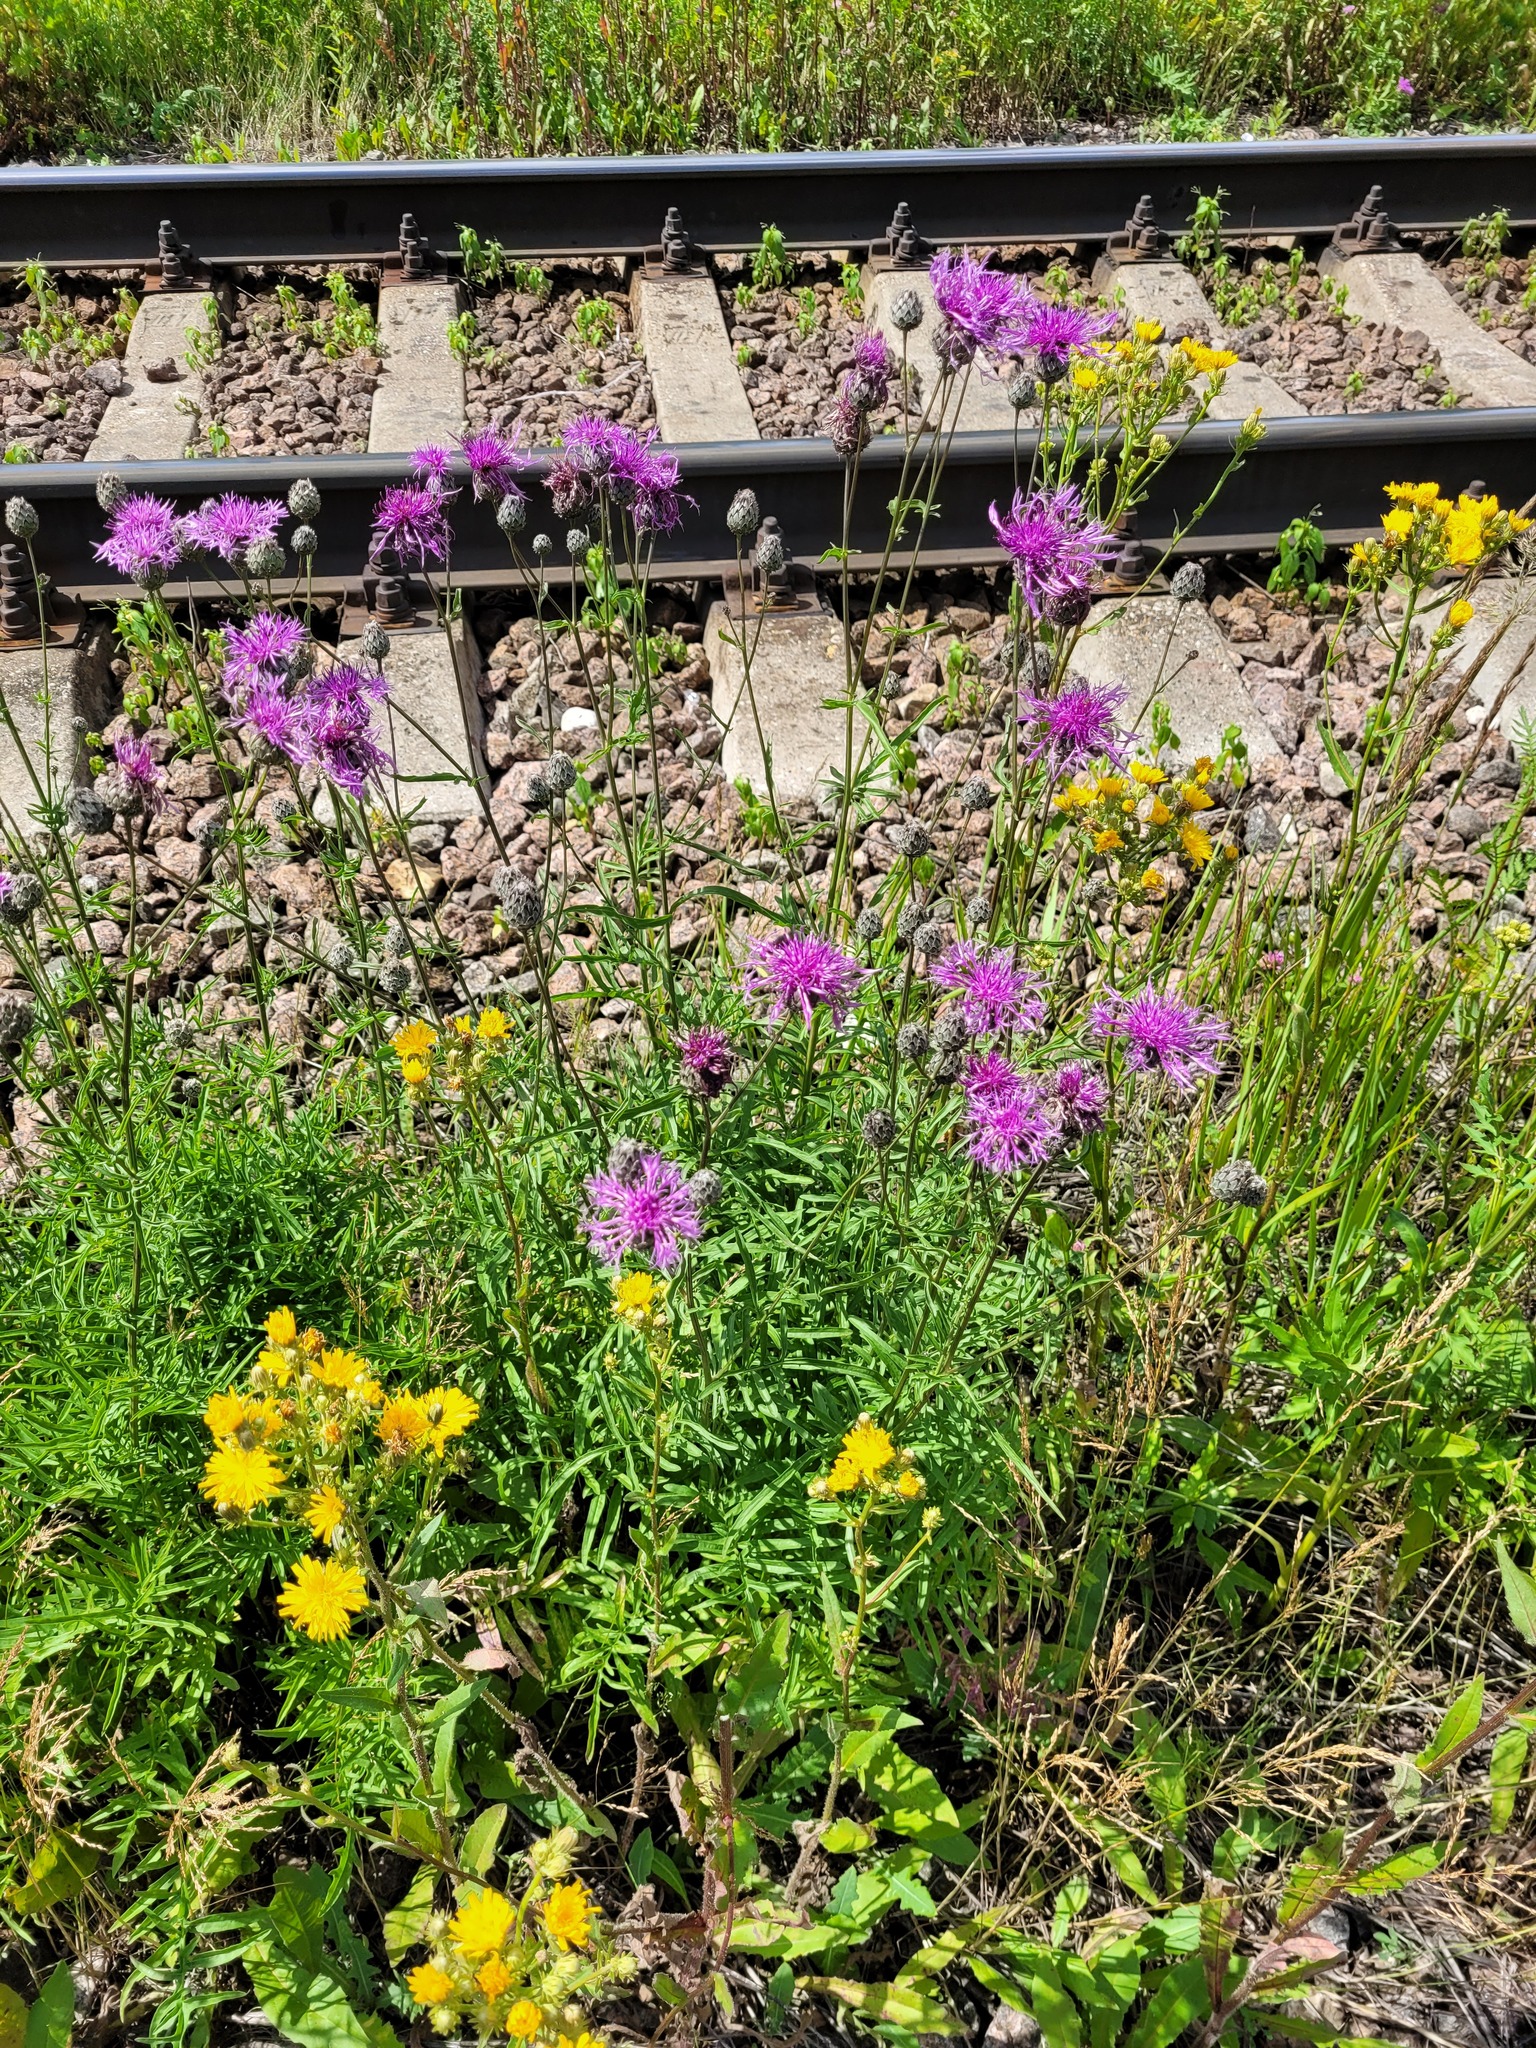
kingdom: Plantae
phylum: Tracheophyta
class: Magnoliopsida
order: Asterales
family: Asteraceae
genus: Centaurea
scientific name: Centaurea scabiosa
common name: Greater knapweed
